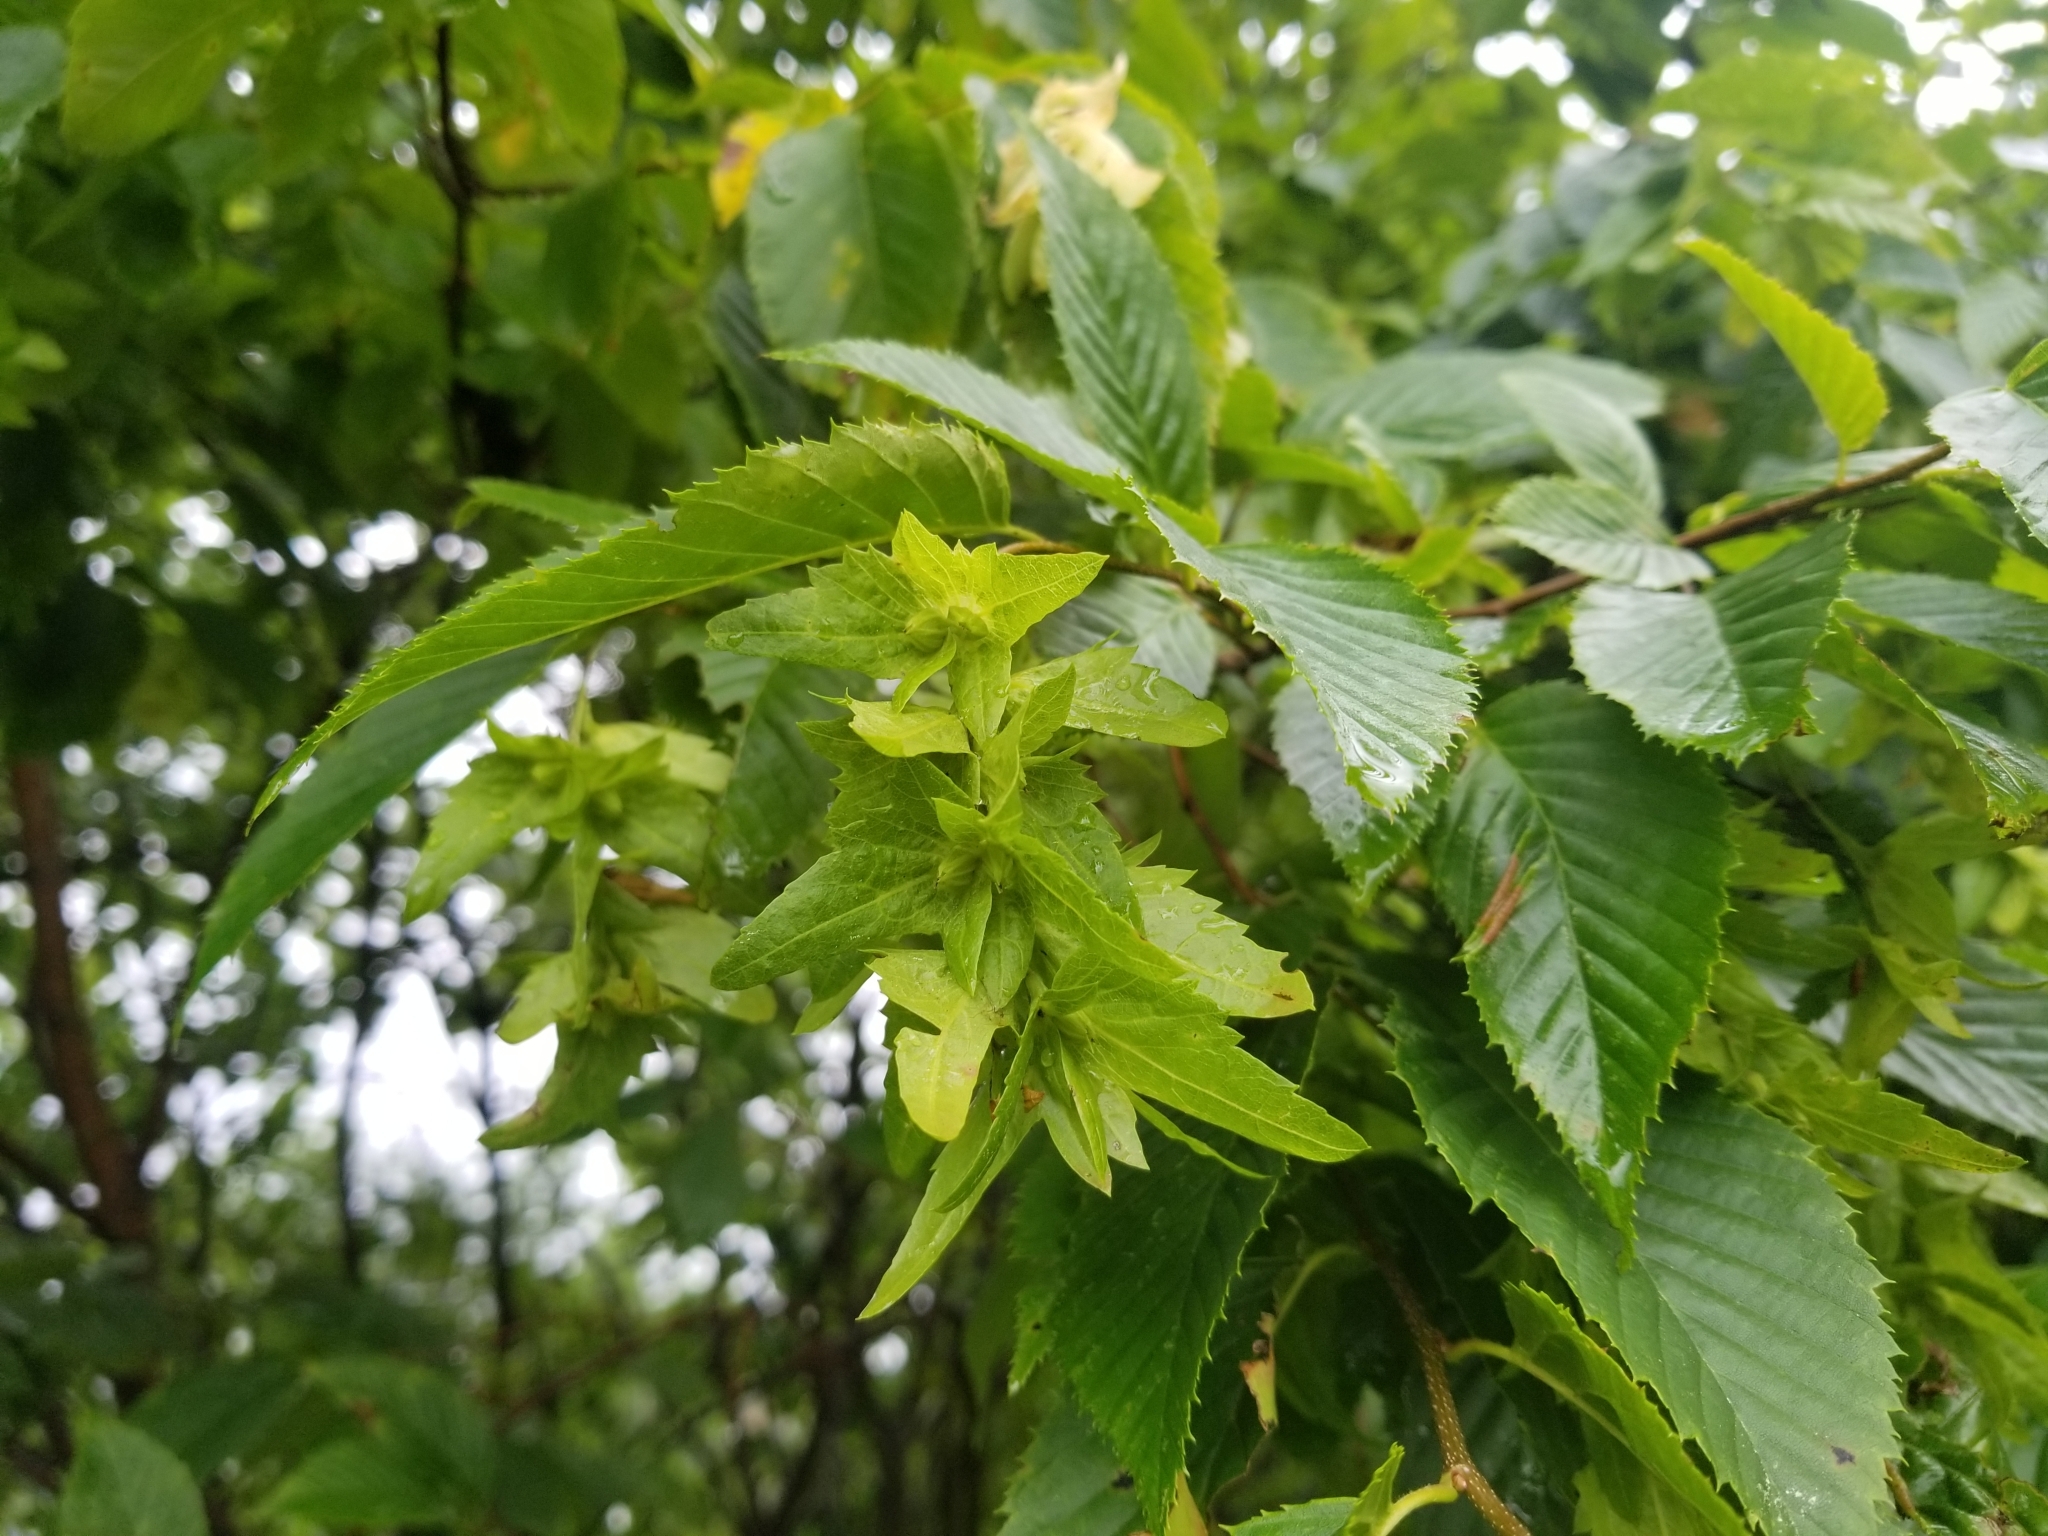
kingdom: Plantae
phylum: Tracheophyta
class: Magnoliopsida
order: Fagales
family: Betulaceae
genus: Carpinus
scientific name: Carpinus caroliniana
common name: American hornbeam
